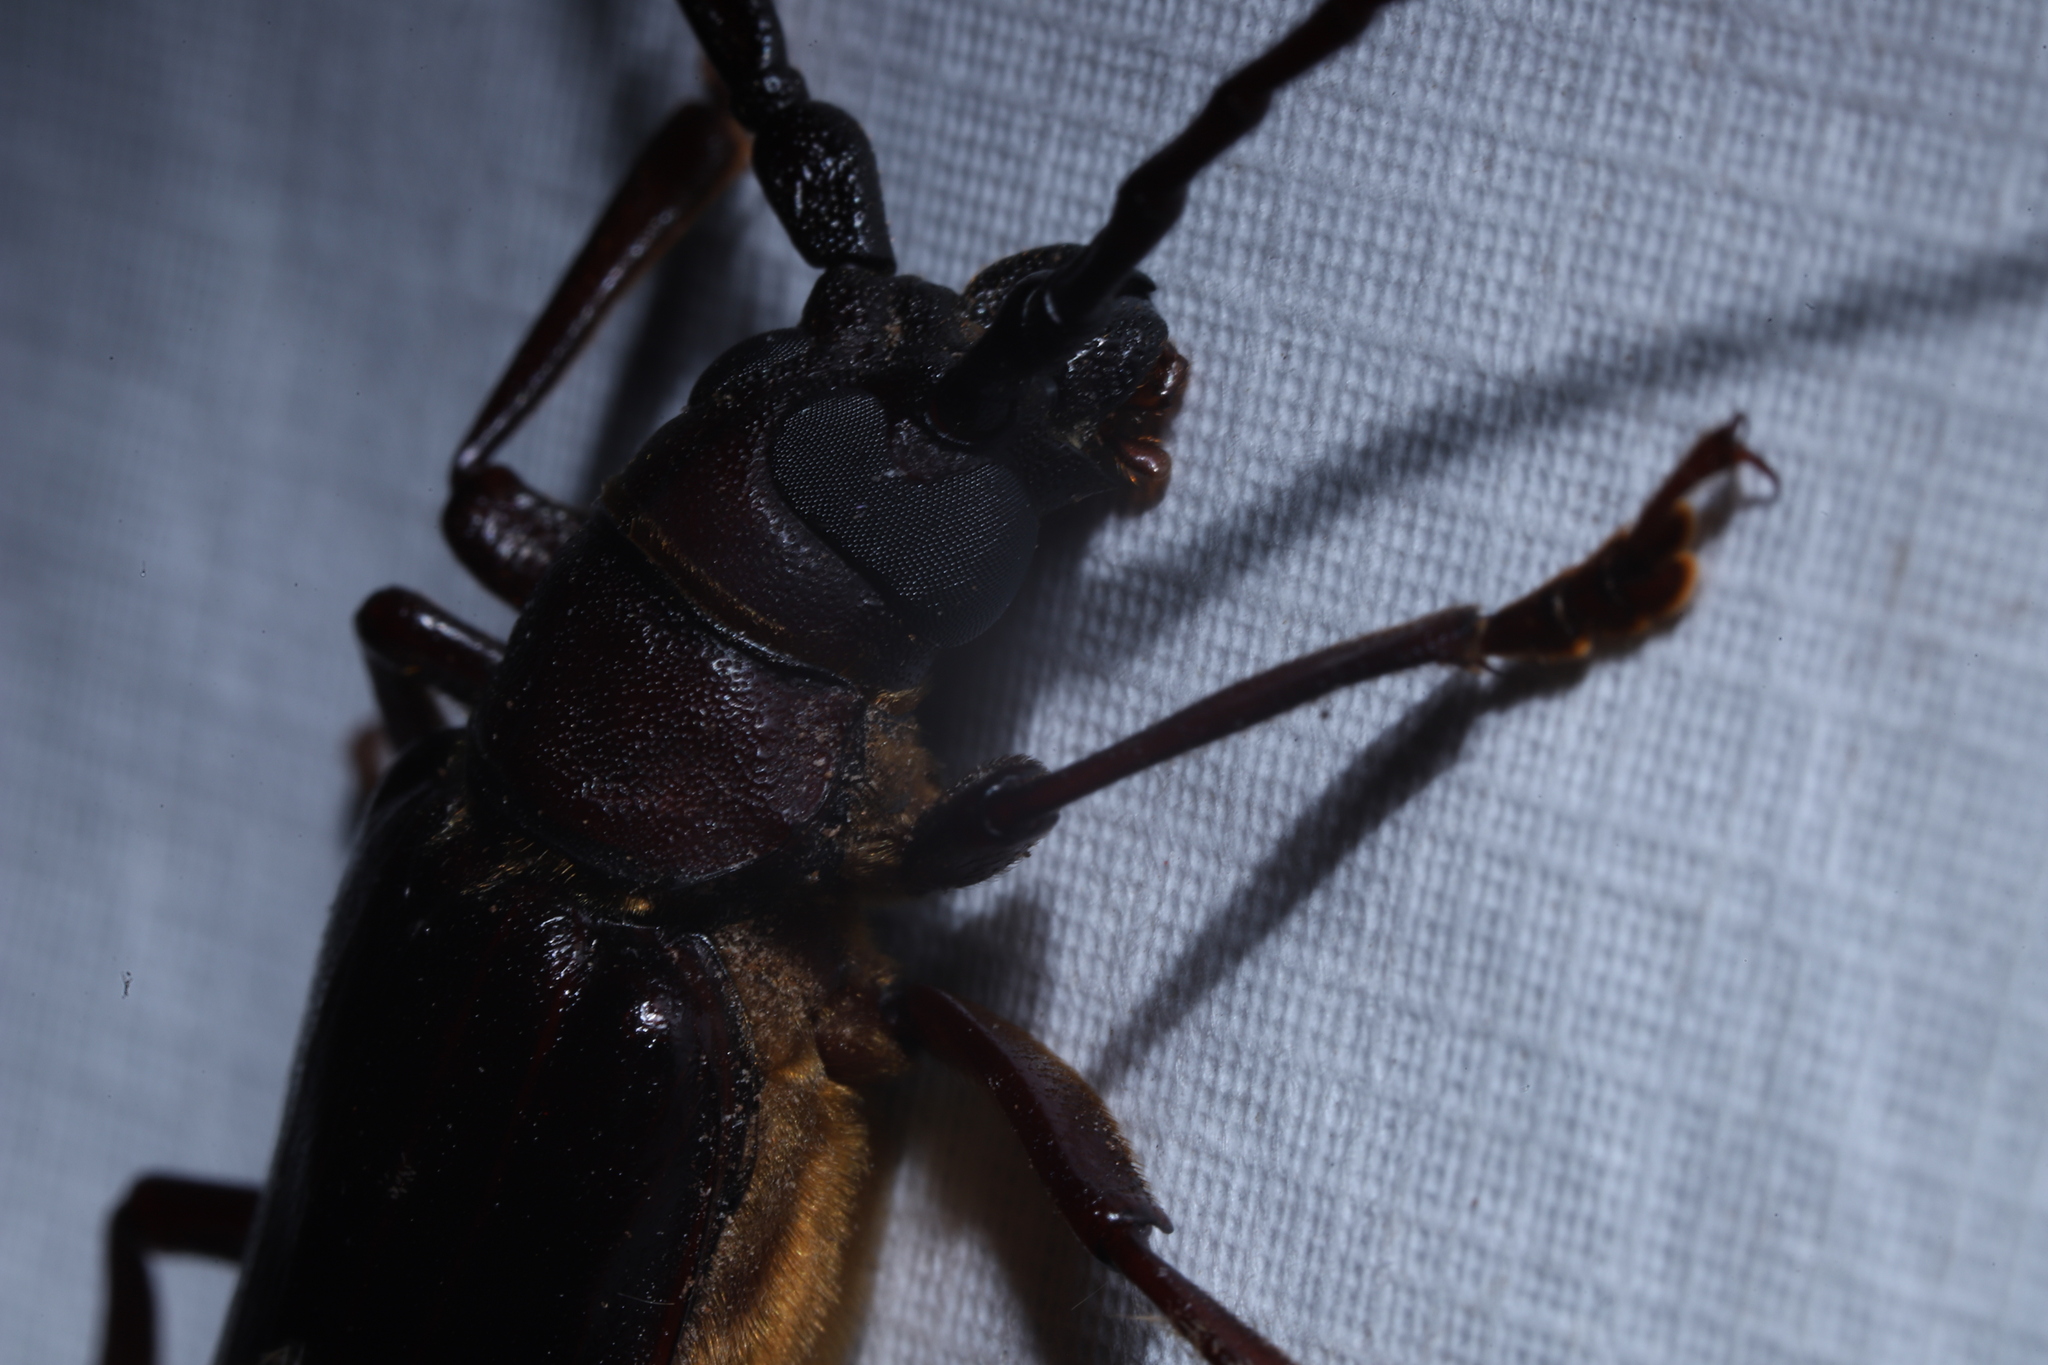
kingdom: Animalia
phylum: Arthropoda
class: Insecta
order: Coleoptera
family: Cerambycidae
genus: Orthosoma
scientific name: Orthosoma brunneum
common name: Brown prionid beetle
